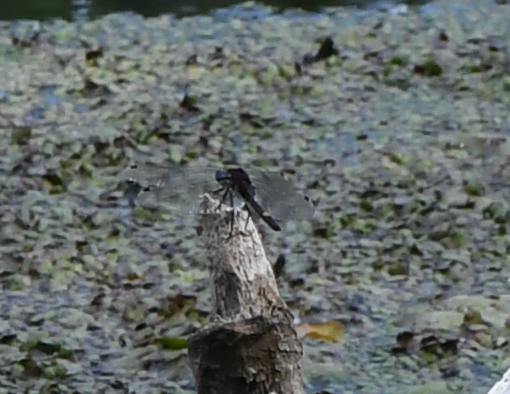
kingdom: Animalia
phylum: Arthropoda
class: Insecta
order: Odonata
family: Libellulidae
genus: Leucorrhinia
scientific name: Leucorrhinia pectoralis
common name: Yellow-spotted whiteface
